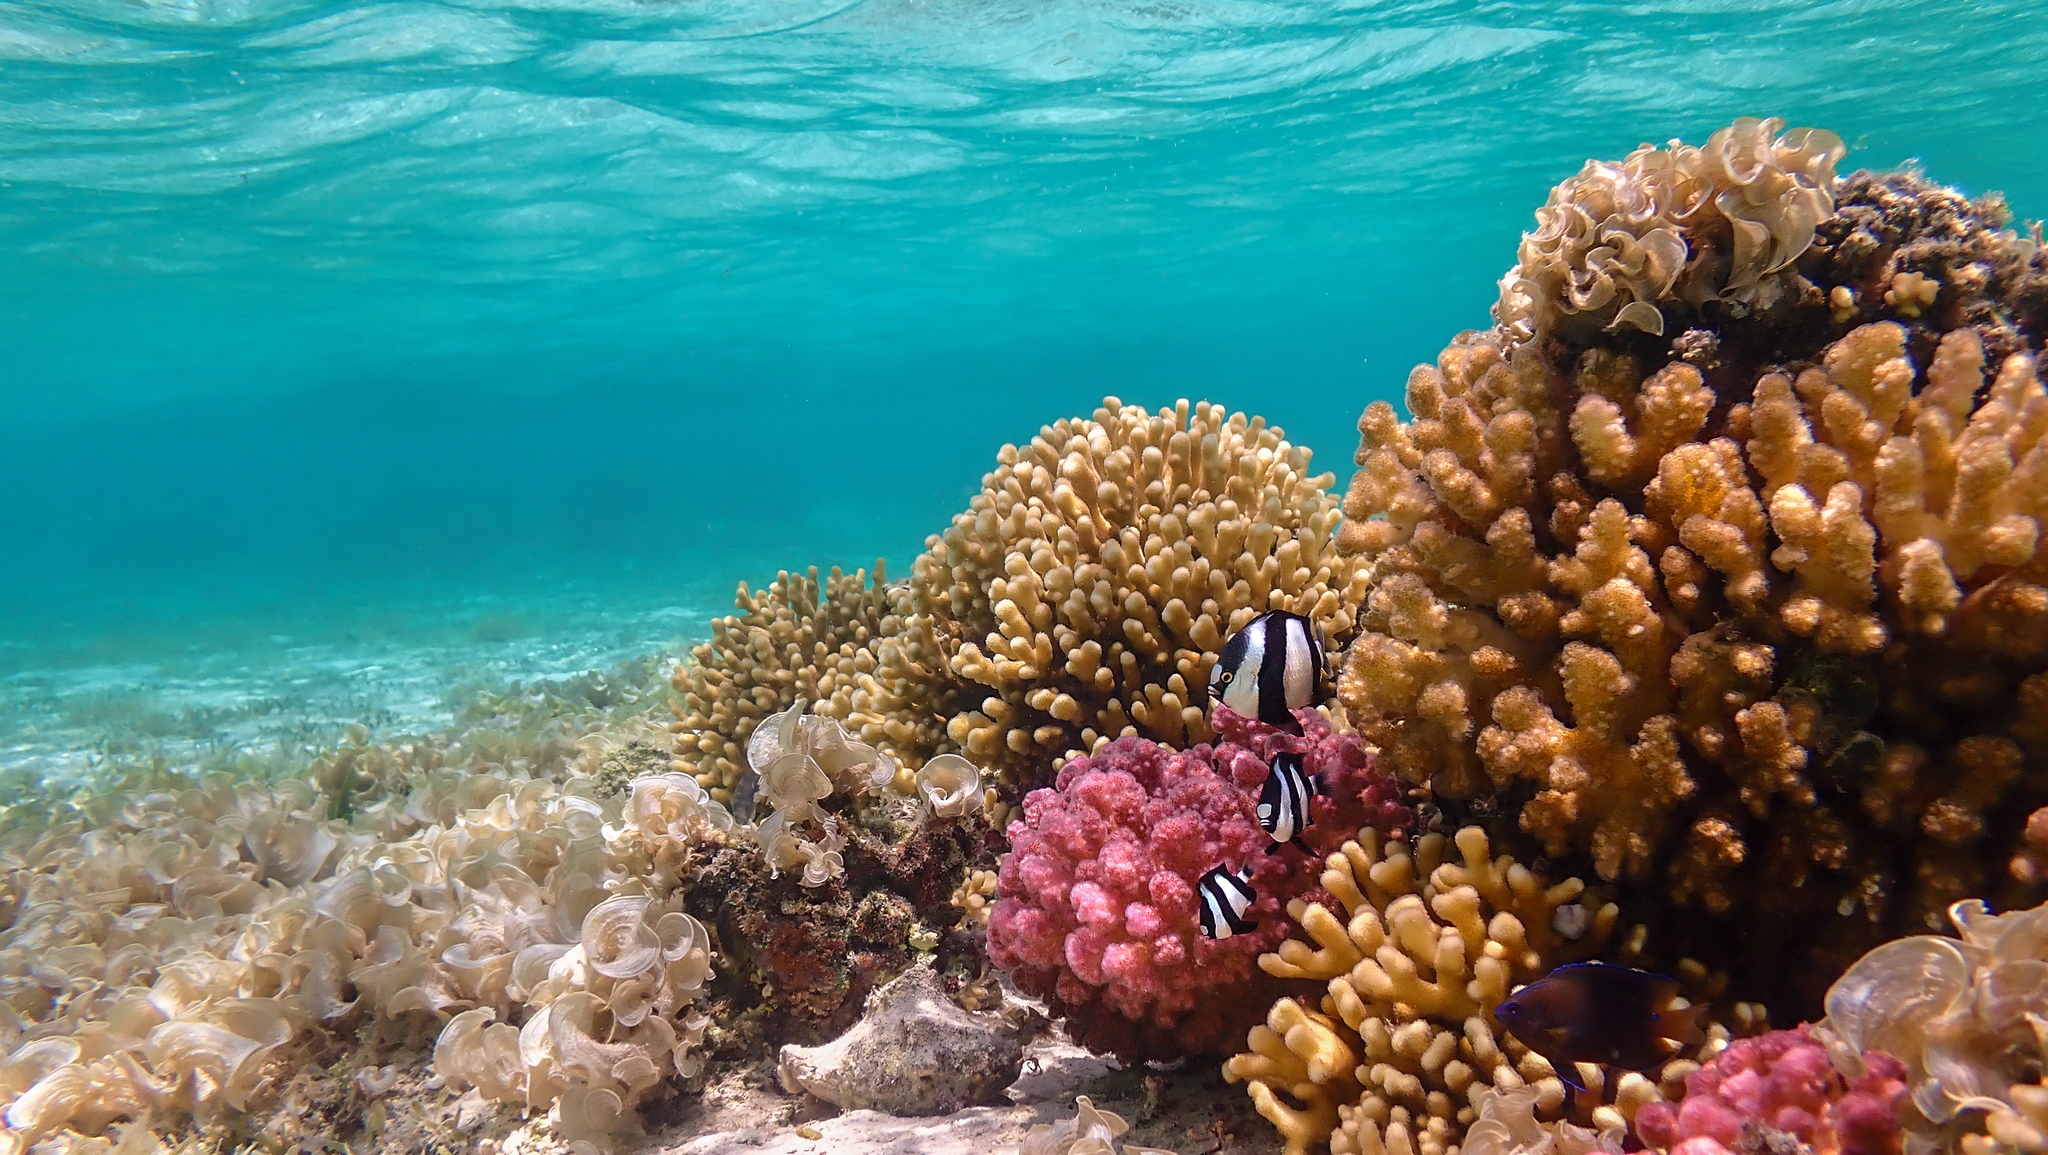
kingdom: Animalia
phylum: Chordata
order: Perciformes
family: Pomacentridae
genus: Dascyllus
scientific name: Dascyllus abudafur
